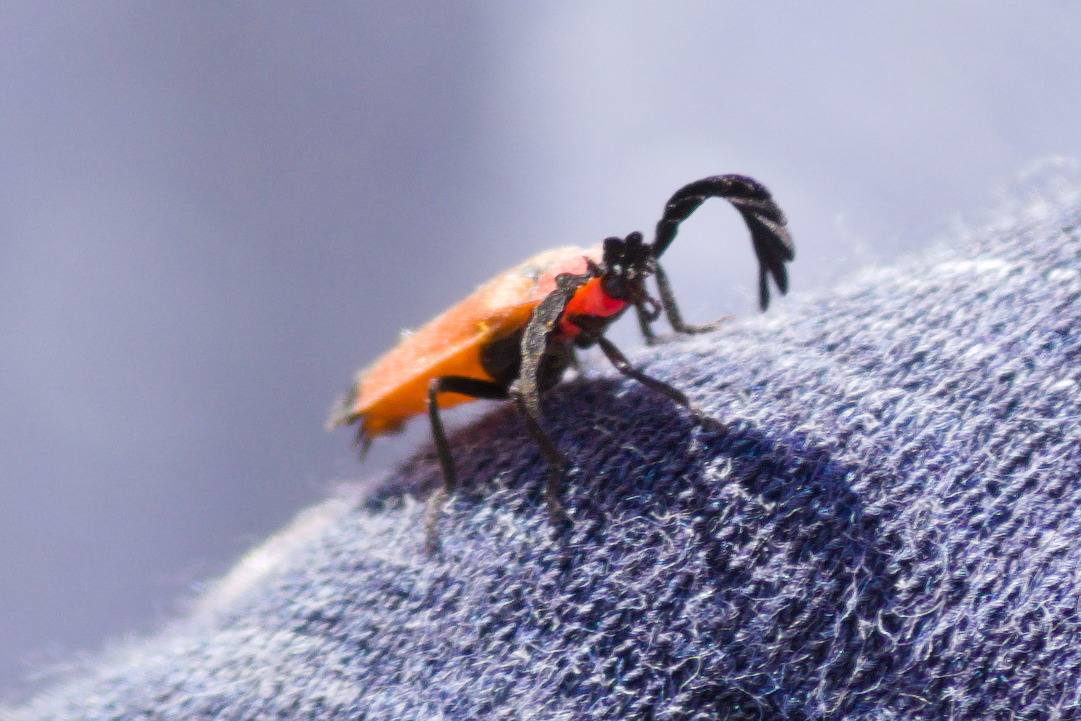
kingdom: Animalia
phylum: Arthropoda
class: Insecta
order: Coleoptera
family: Lampyridae
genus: Cladodes
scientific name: Cladodes flabellatus
